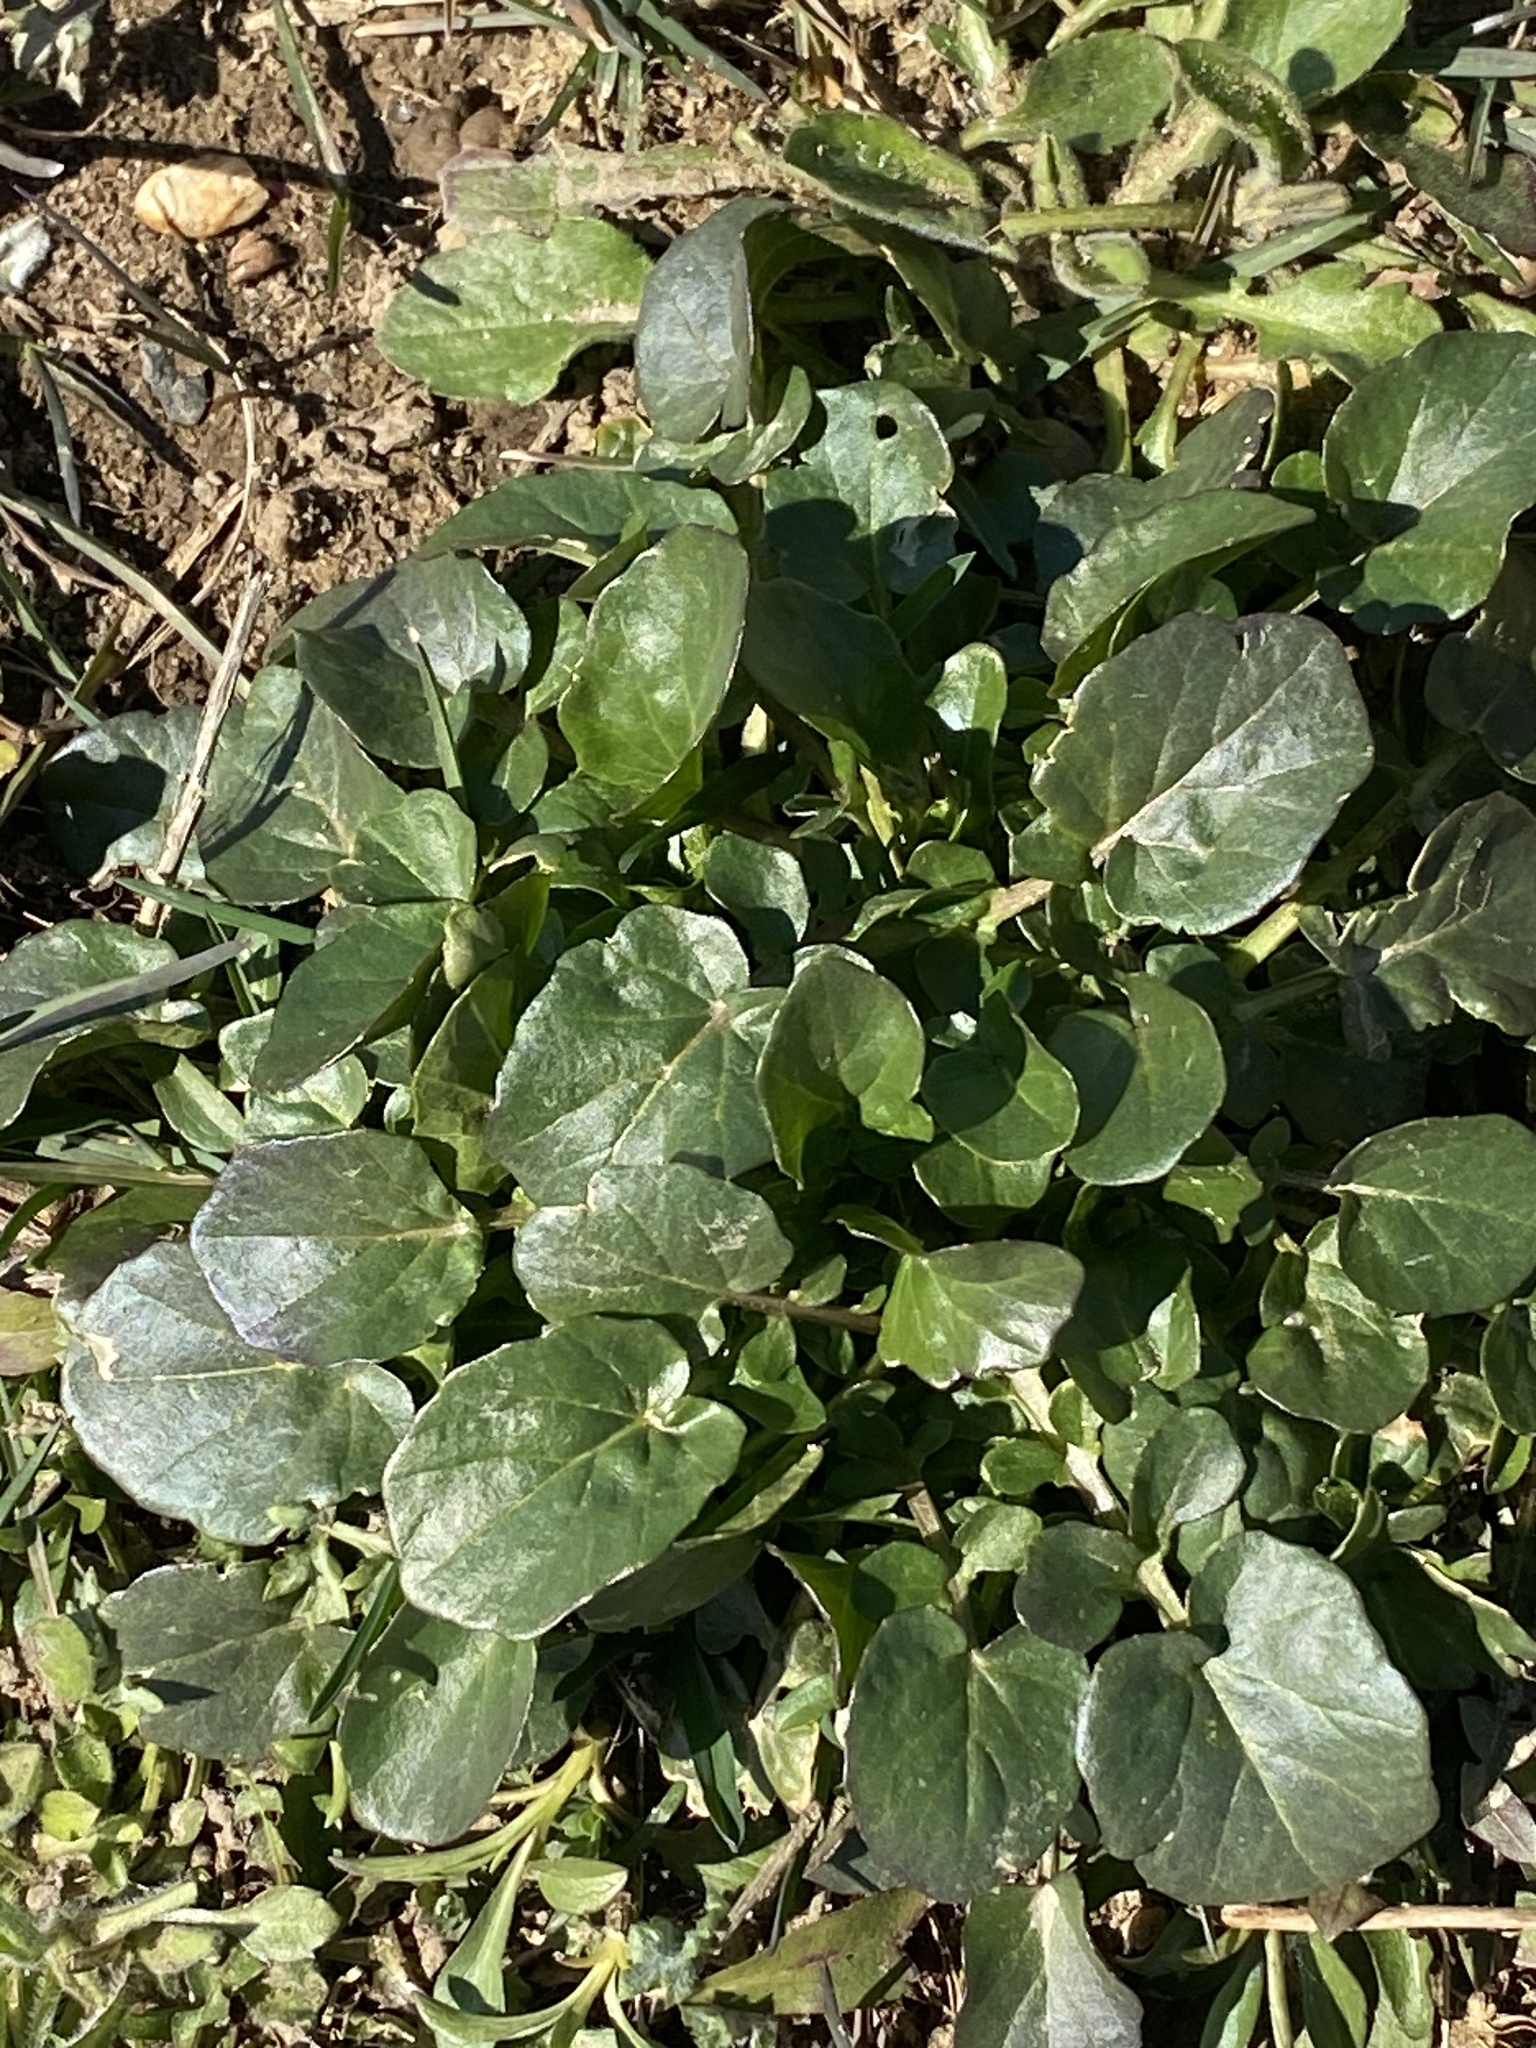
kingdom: Plantae
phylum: Tracheophyta
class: Magnoliopsida
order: Brassicales
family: Brassicaceae
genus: Barbarea
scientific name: Barbarea vulgaris
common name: Cressy-greens
